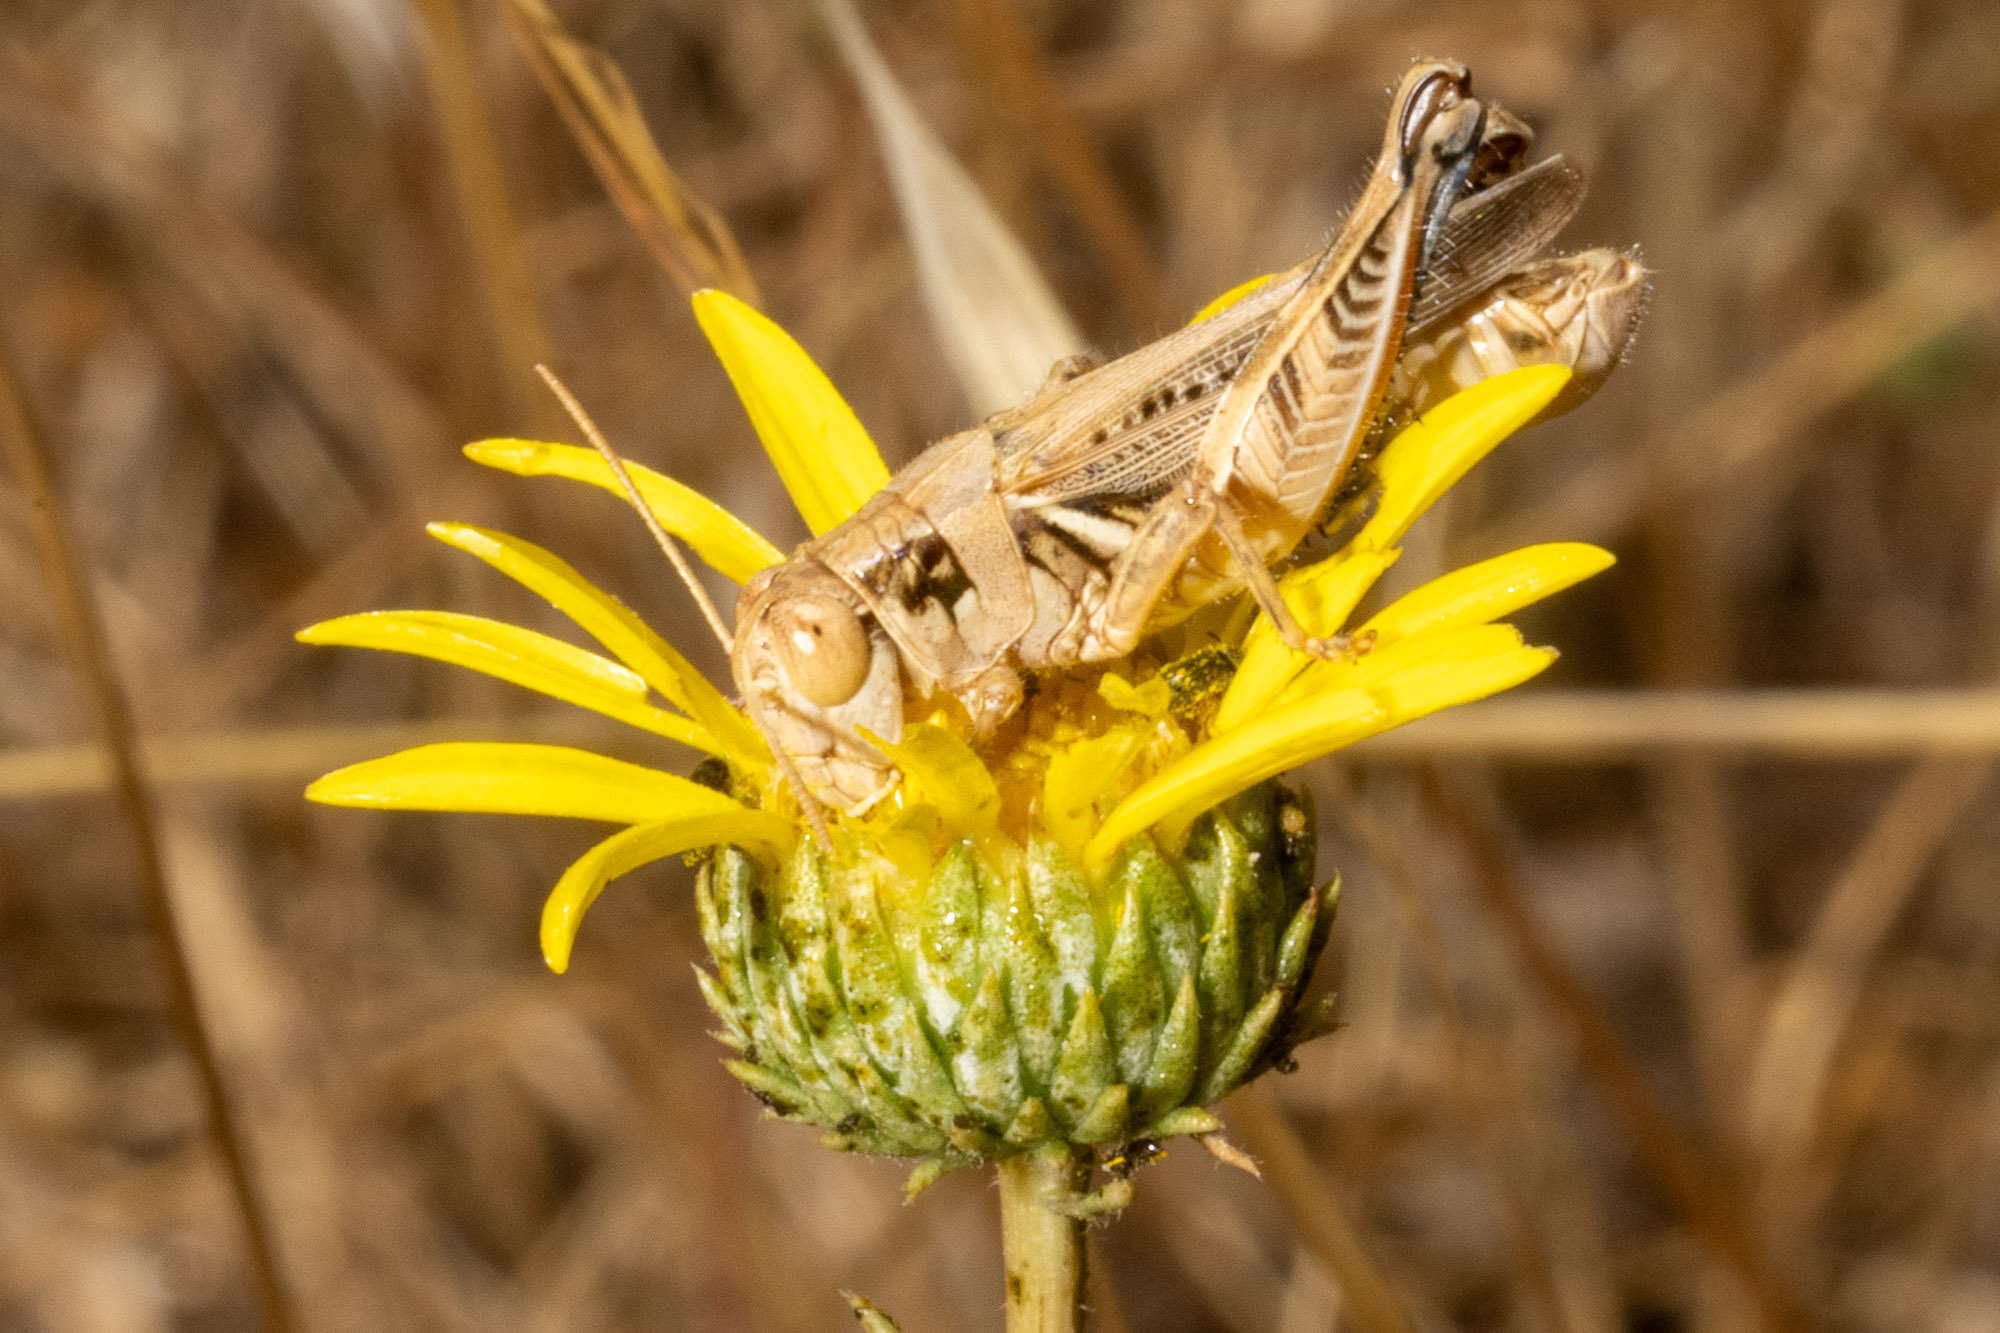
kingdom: Animalia
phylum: Arthropoda
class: Insecta
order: Orthoptera
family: Acrididae
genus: Melanoplus
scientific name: Melanoplus devastator
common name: Devastating grasshopper
